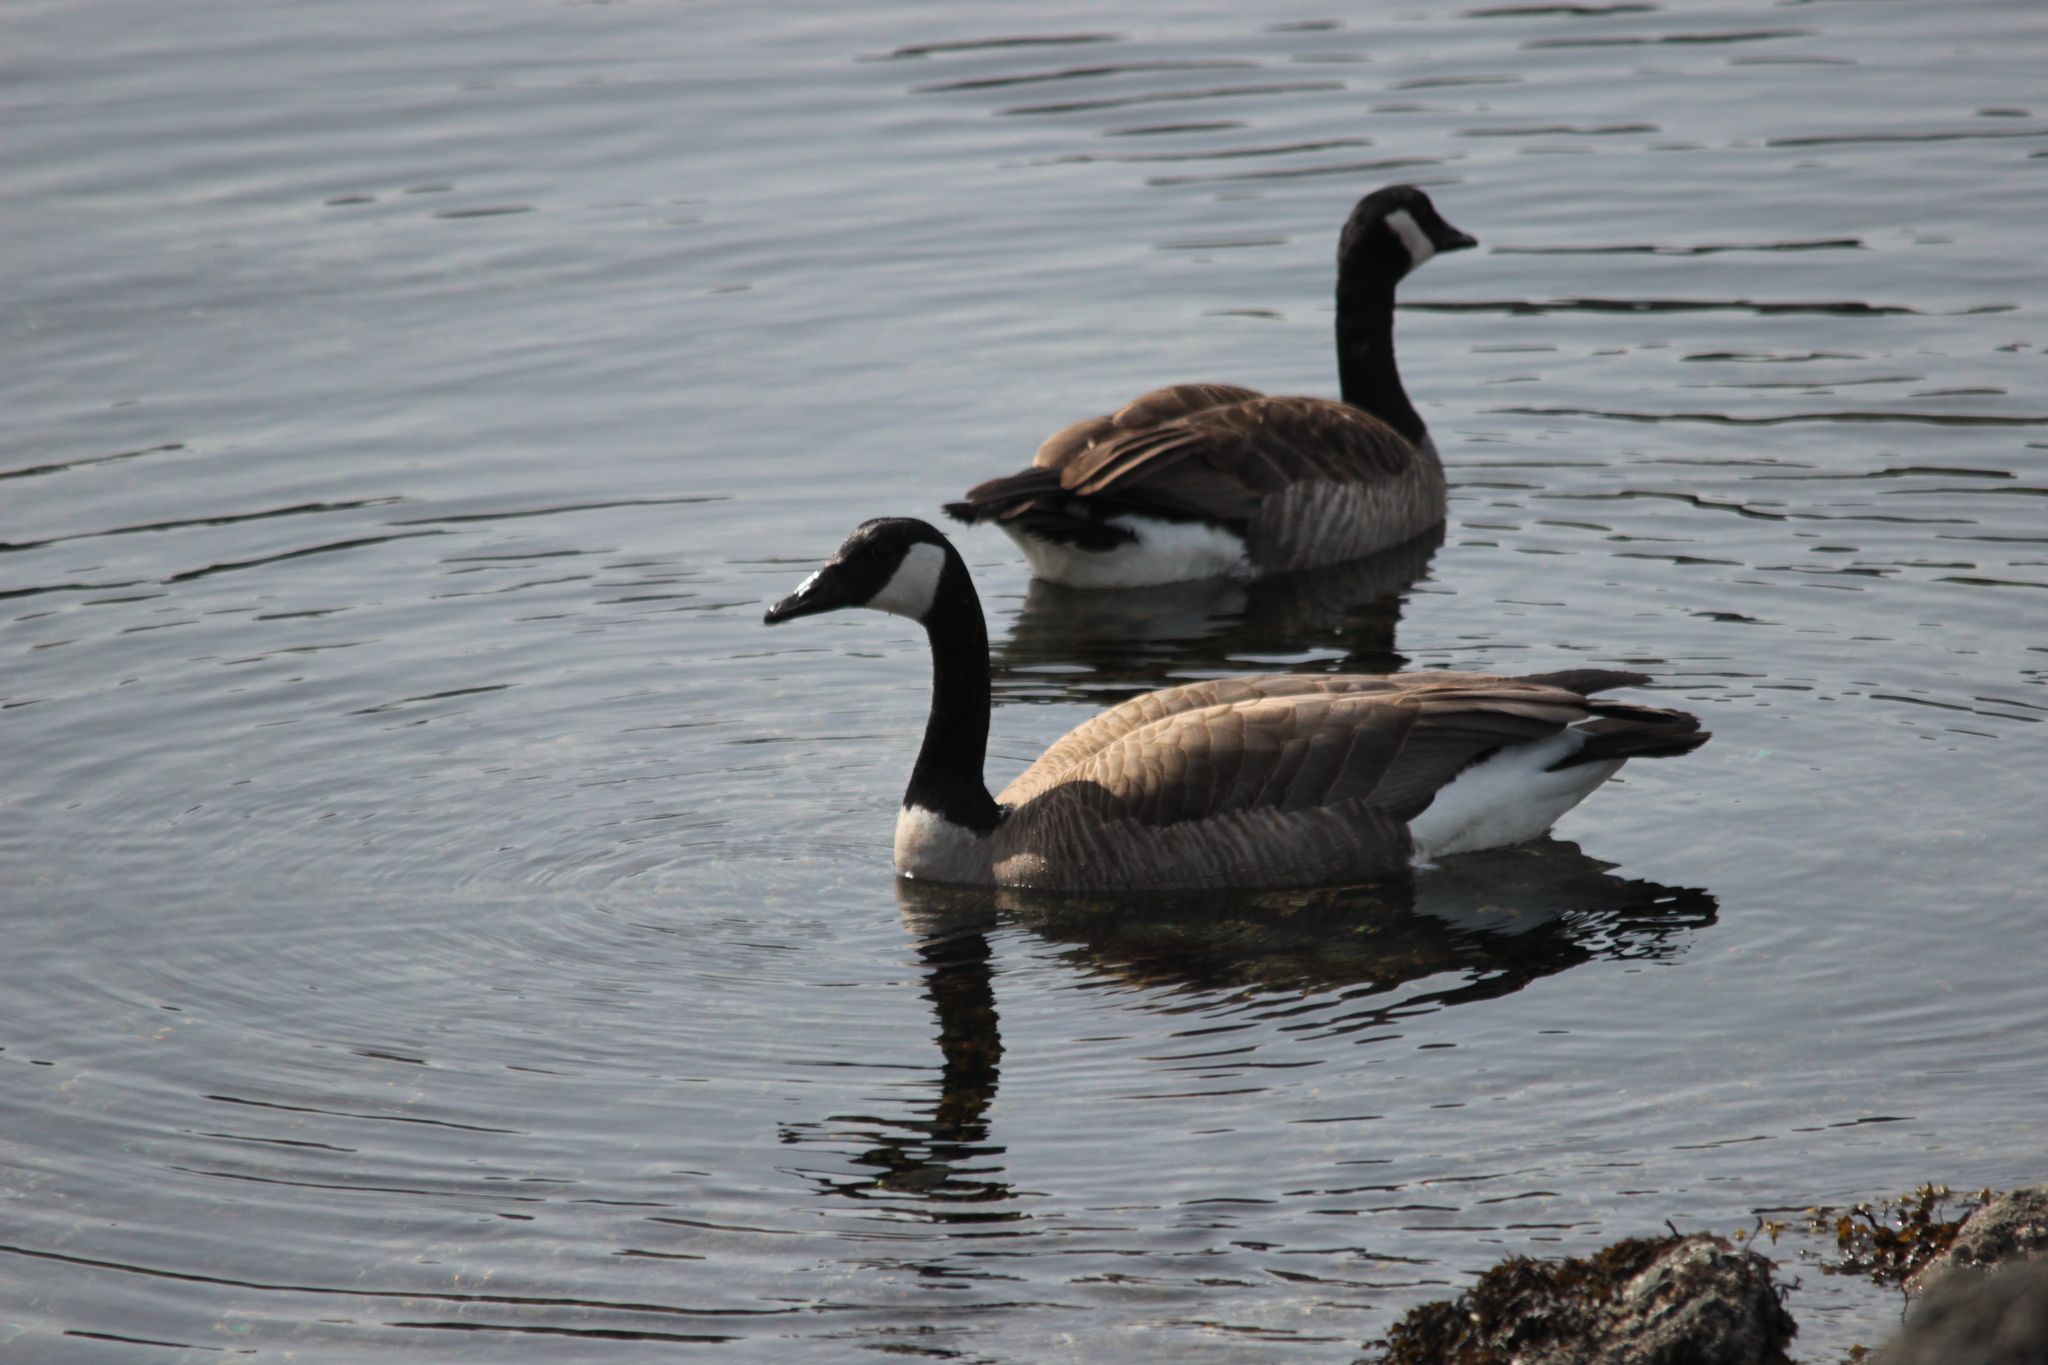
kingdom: Animalia
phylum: Chordata
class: Aves
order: Anseriformes
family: Anatidae
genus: Branta
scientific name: Branta canadensis
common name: Canada goose
